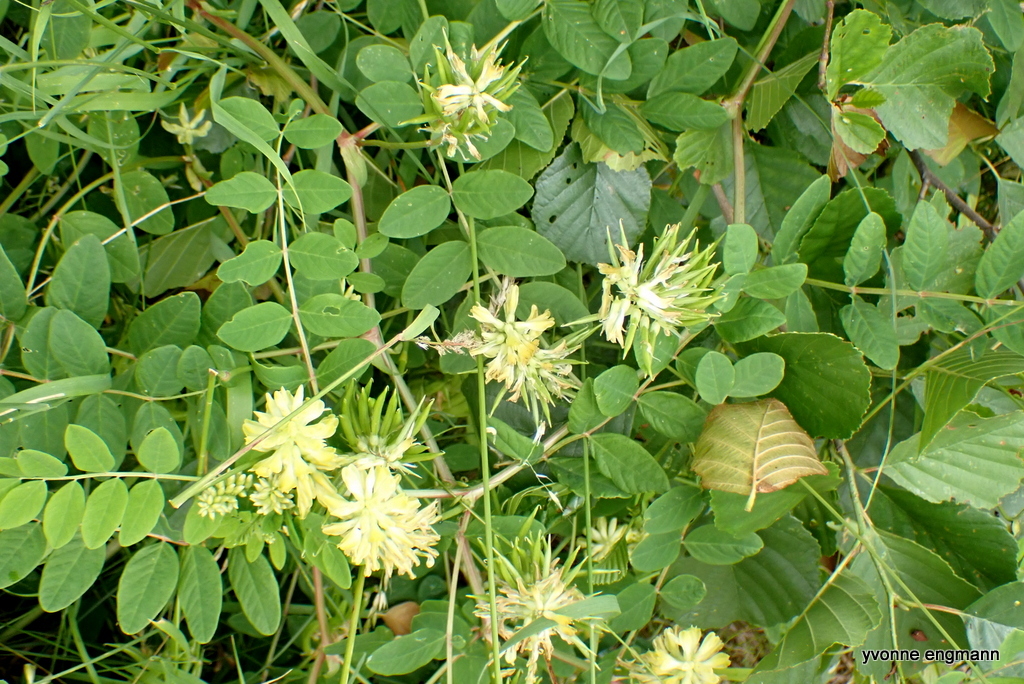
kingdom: Plantae
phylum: Tracheophyta
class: Magnoliopsida
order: Fabales
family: Fabaceae
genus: Astragalus
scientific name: Astragalus glycyphyllos
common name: Wild liquorice
